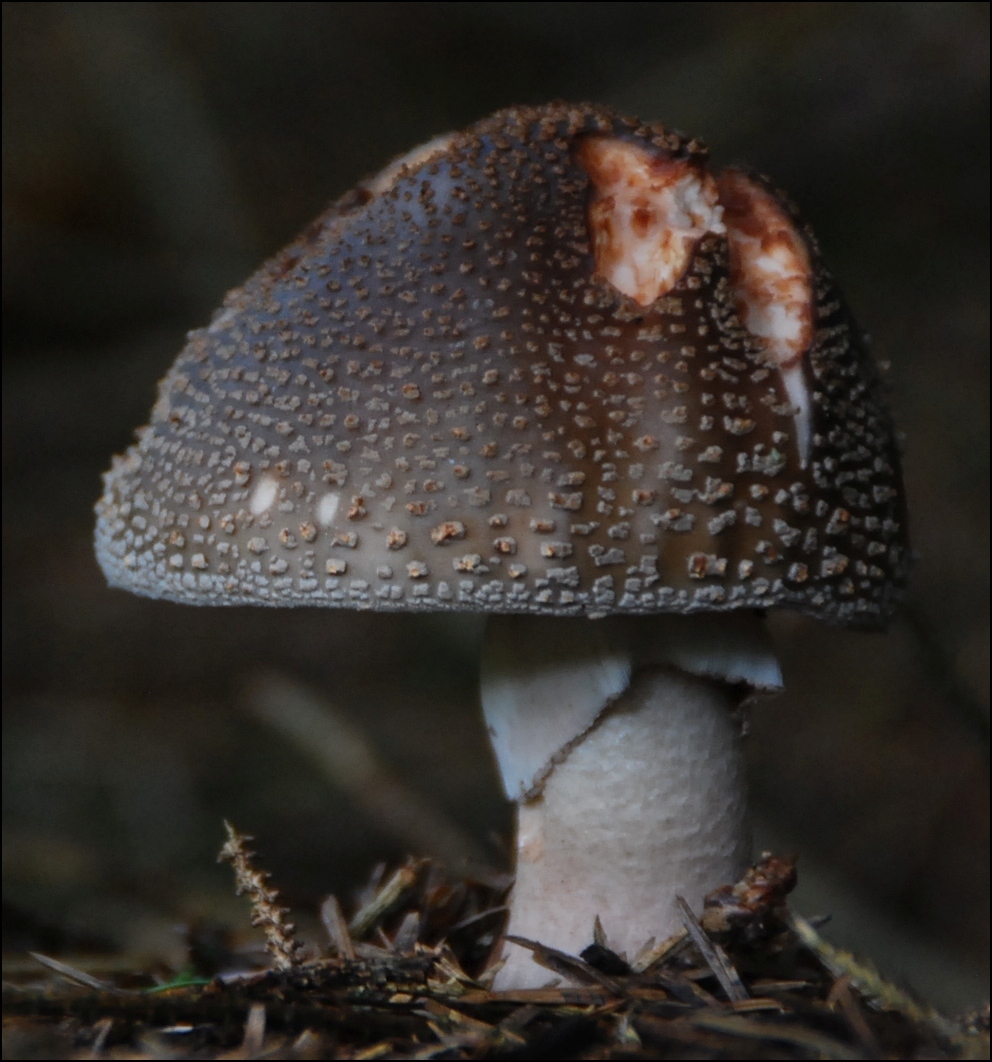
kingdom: Fungi
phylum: Basidiomycota
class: Agaricomycetes
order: Agaricales
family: Amanitaceae
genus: Amanita
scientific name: Amanita rubescens
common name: Blusher
